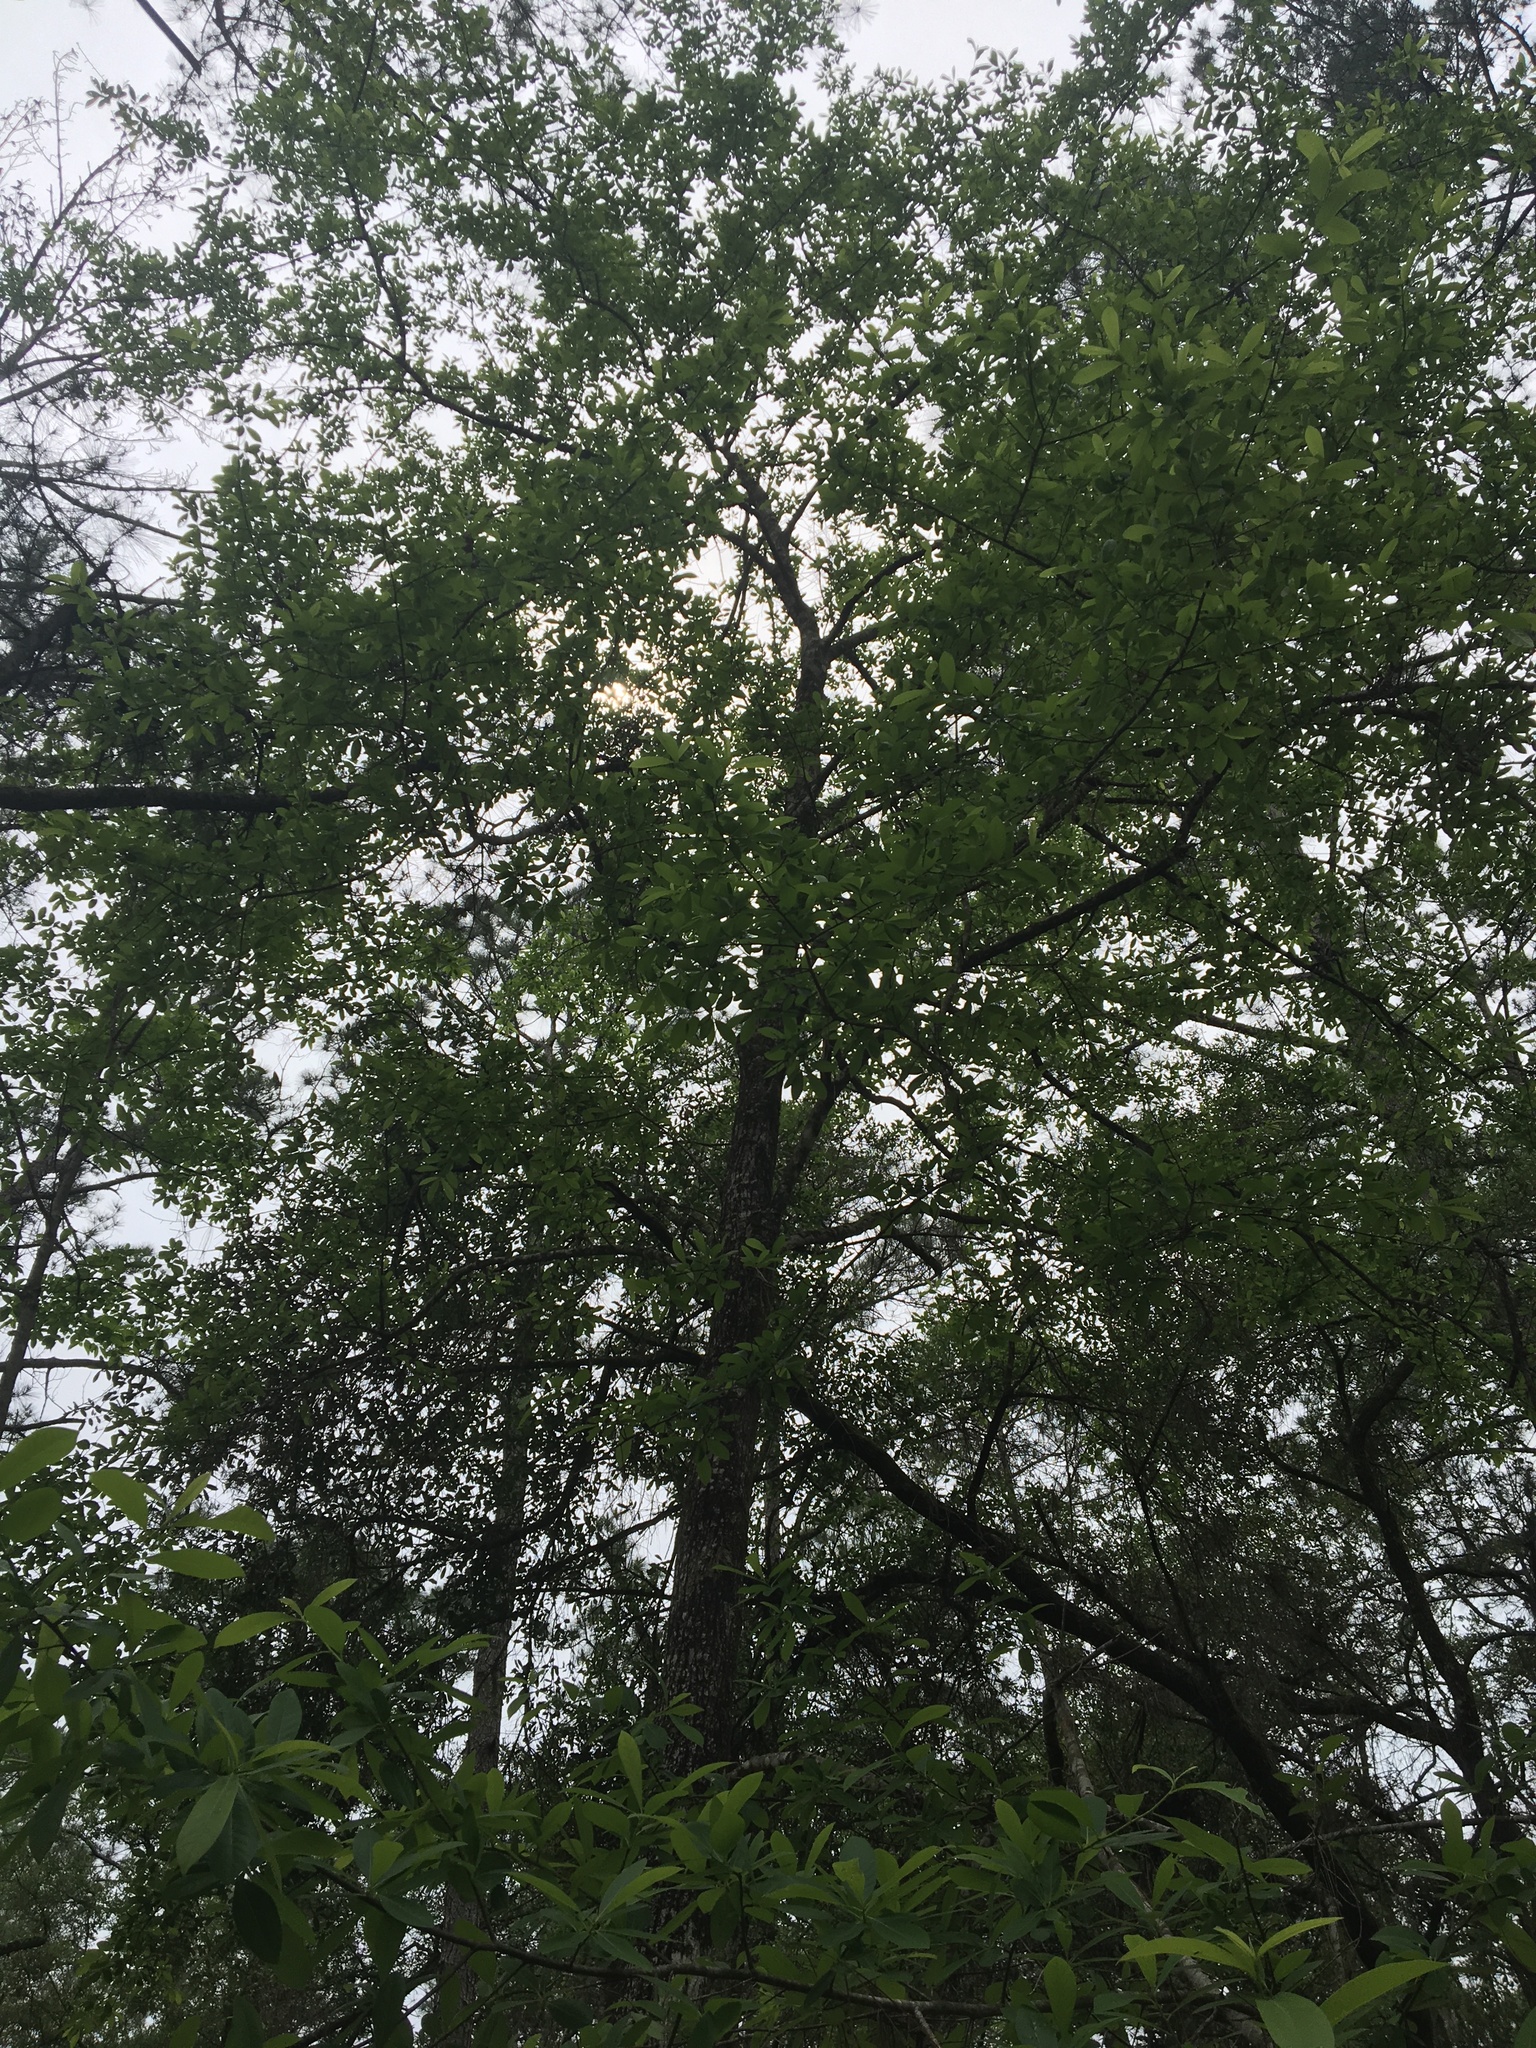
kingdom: Plantae
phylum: Tracheophyta
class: Magnoliopsida
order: Cornales
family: Nyssaceae
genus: Nyssa
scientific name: Nyssa sylvatica
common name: Black tupelo
